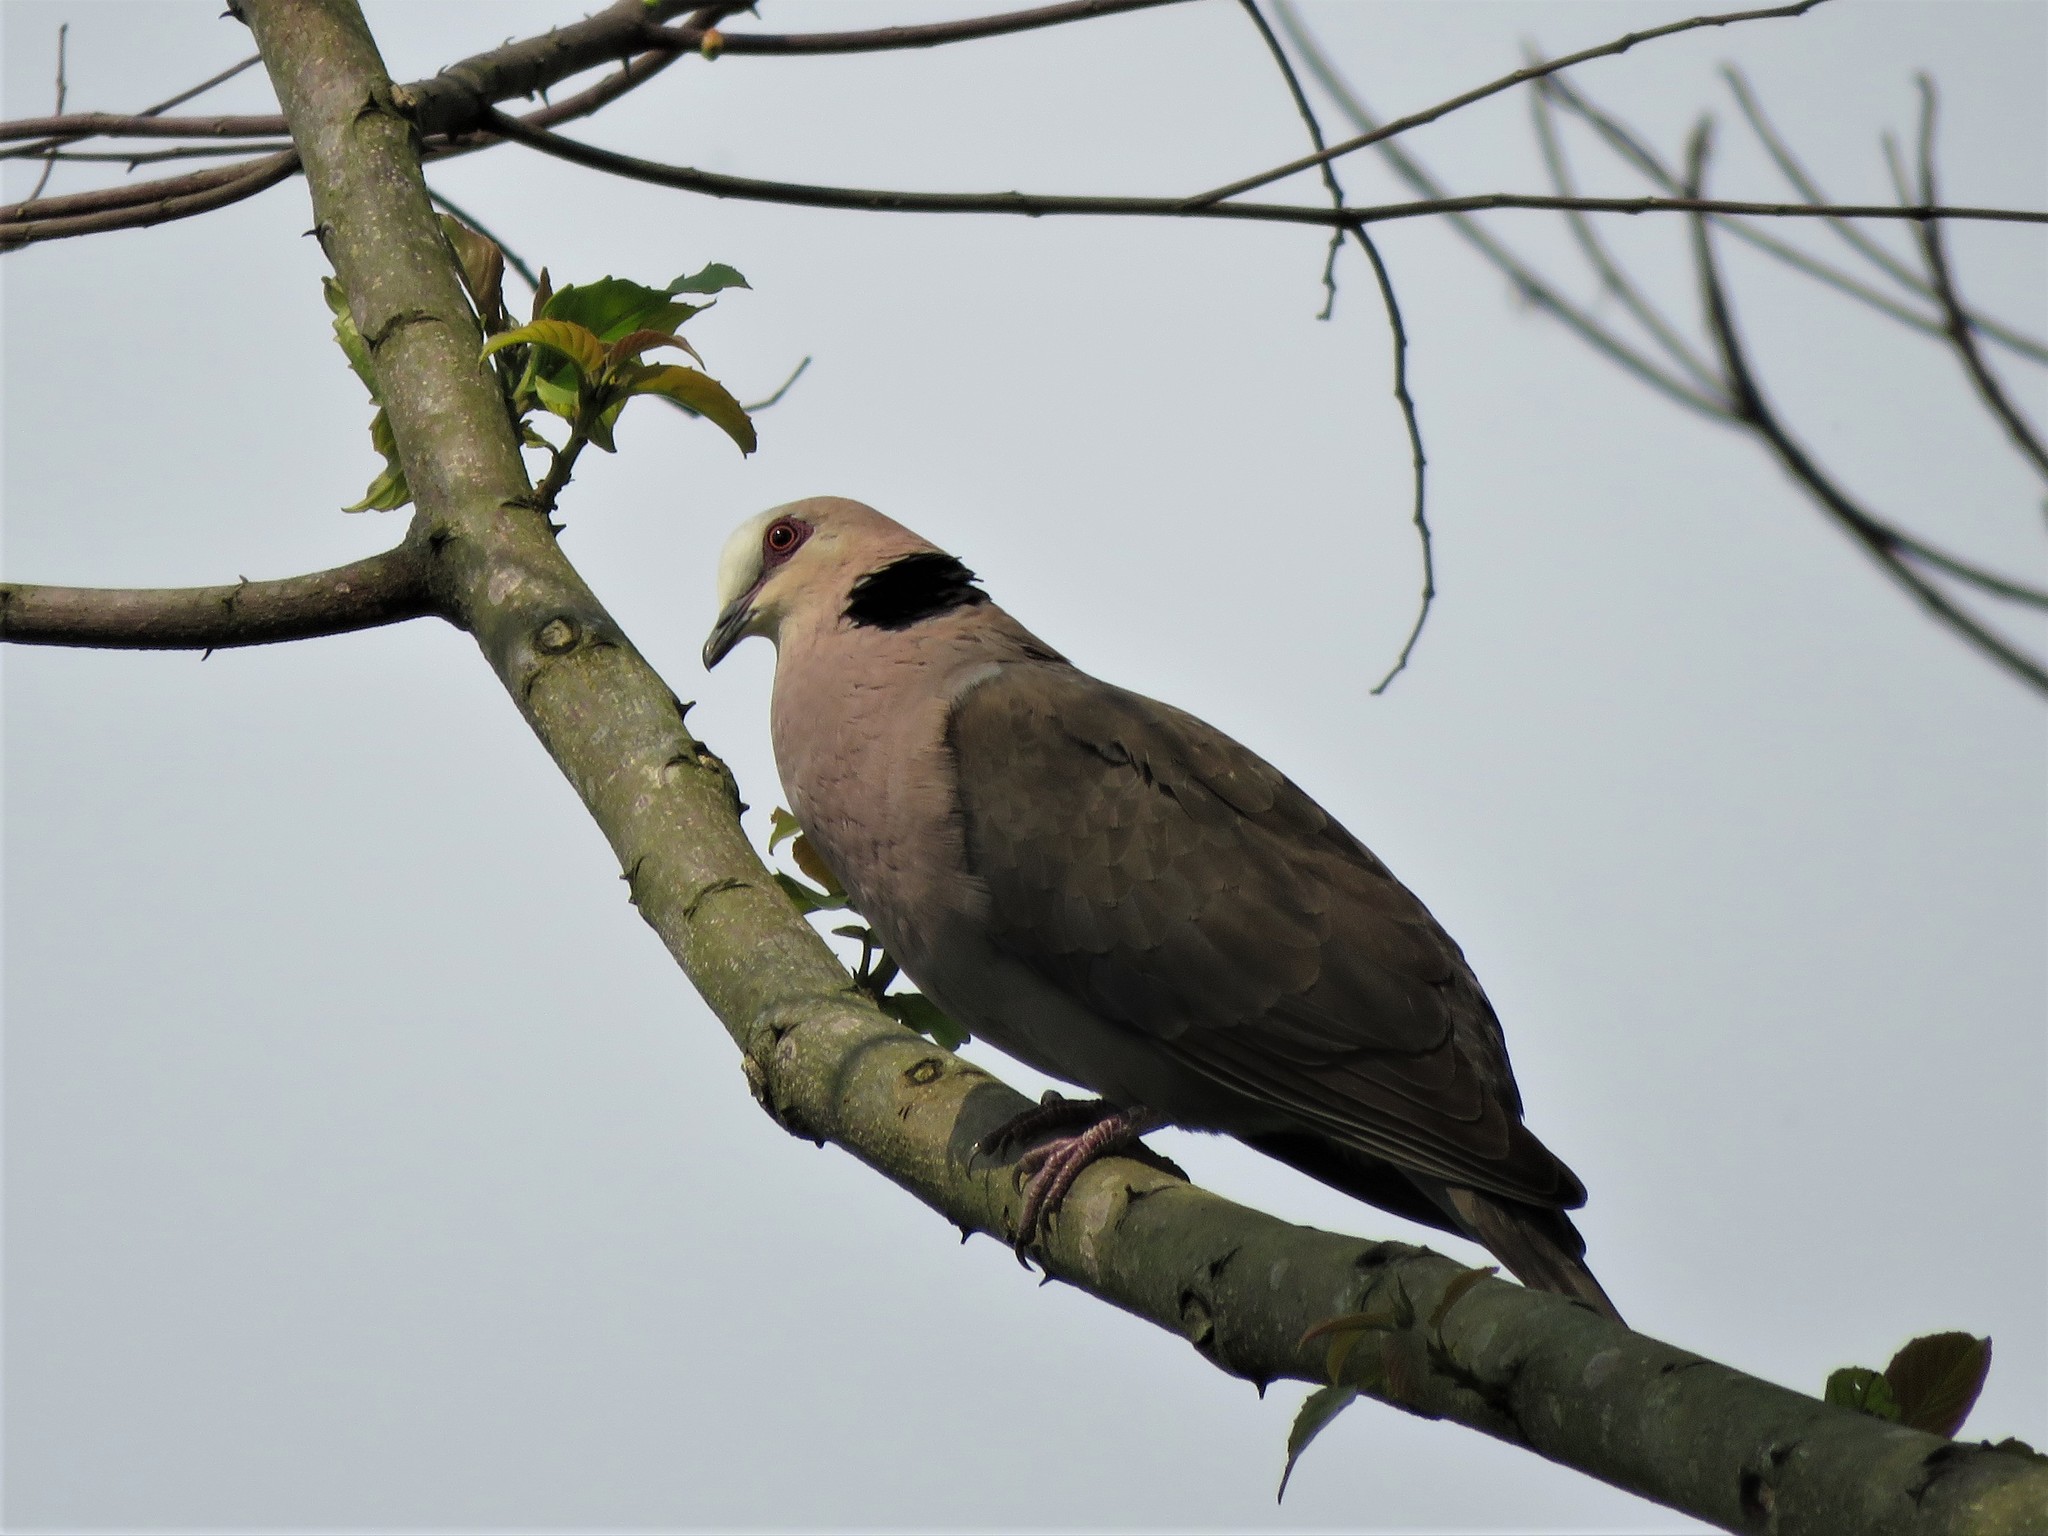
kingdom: Animalia
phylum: Chordata
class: Aves
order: Columbiformes
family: Columbidae
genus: Streptopelia
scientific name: Streptopelia semitorquata
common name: Red-eyed dove
